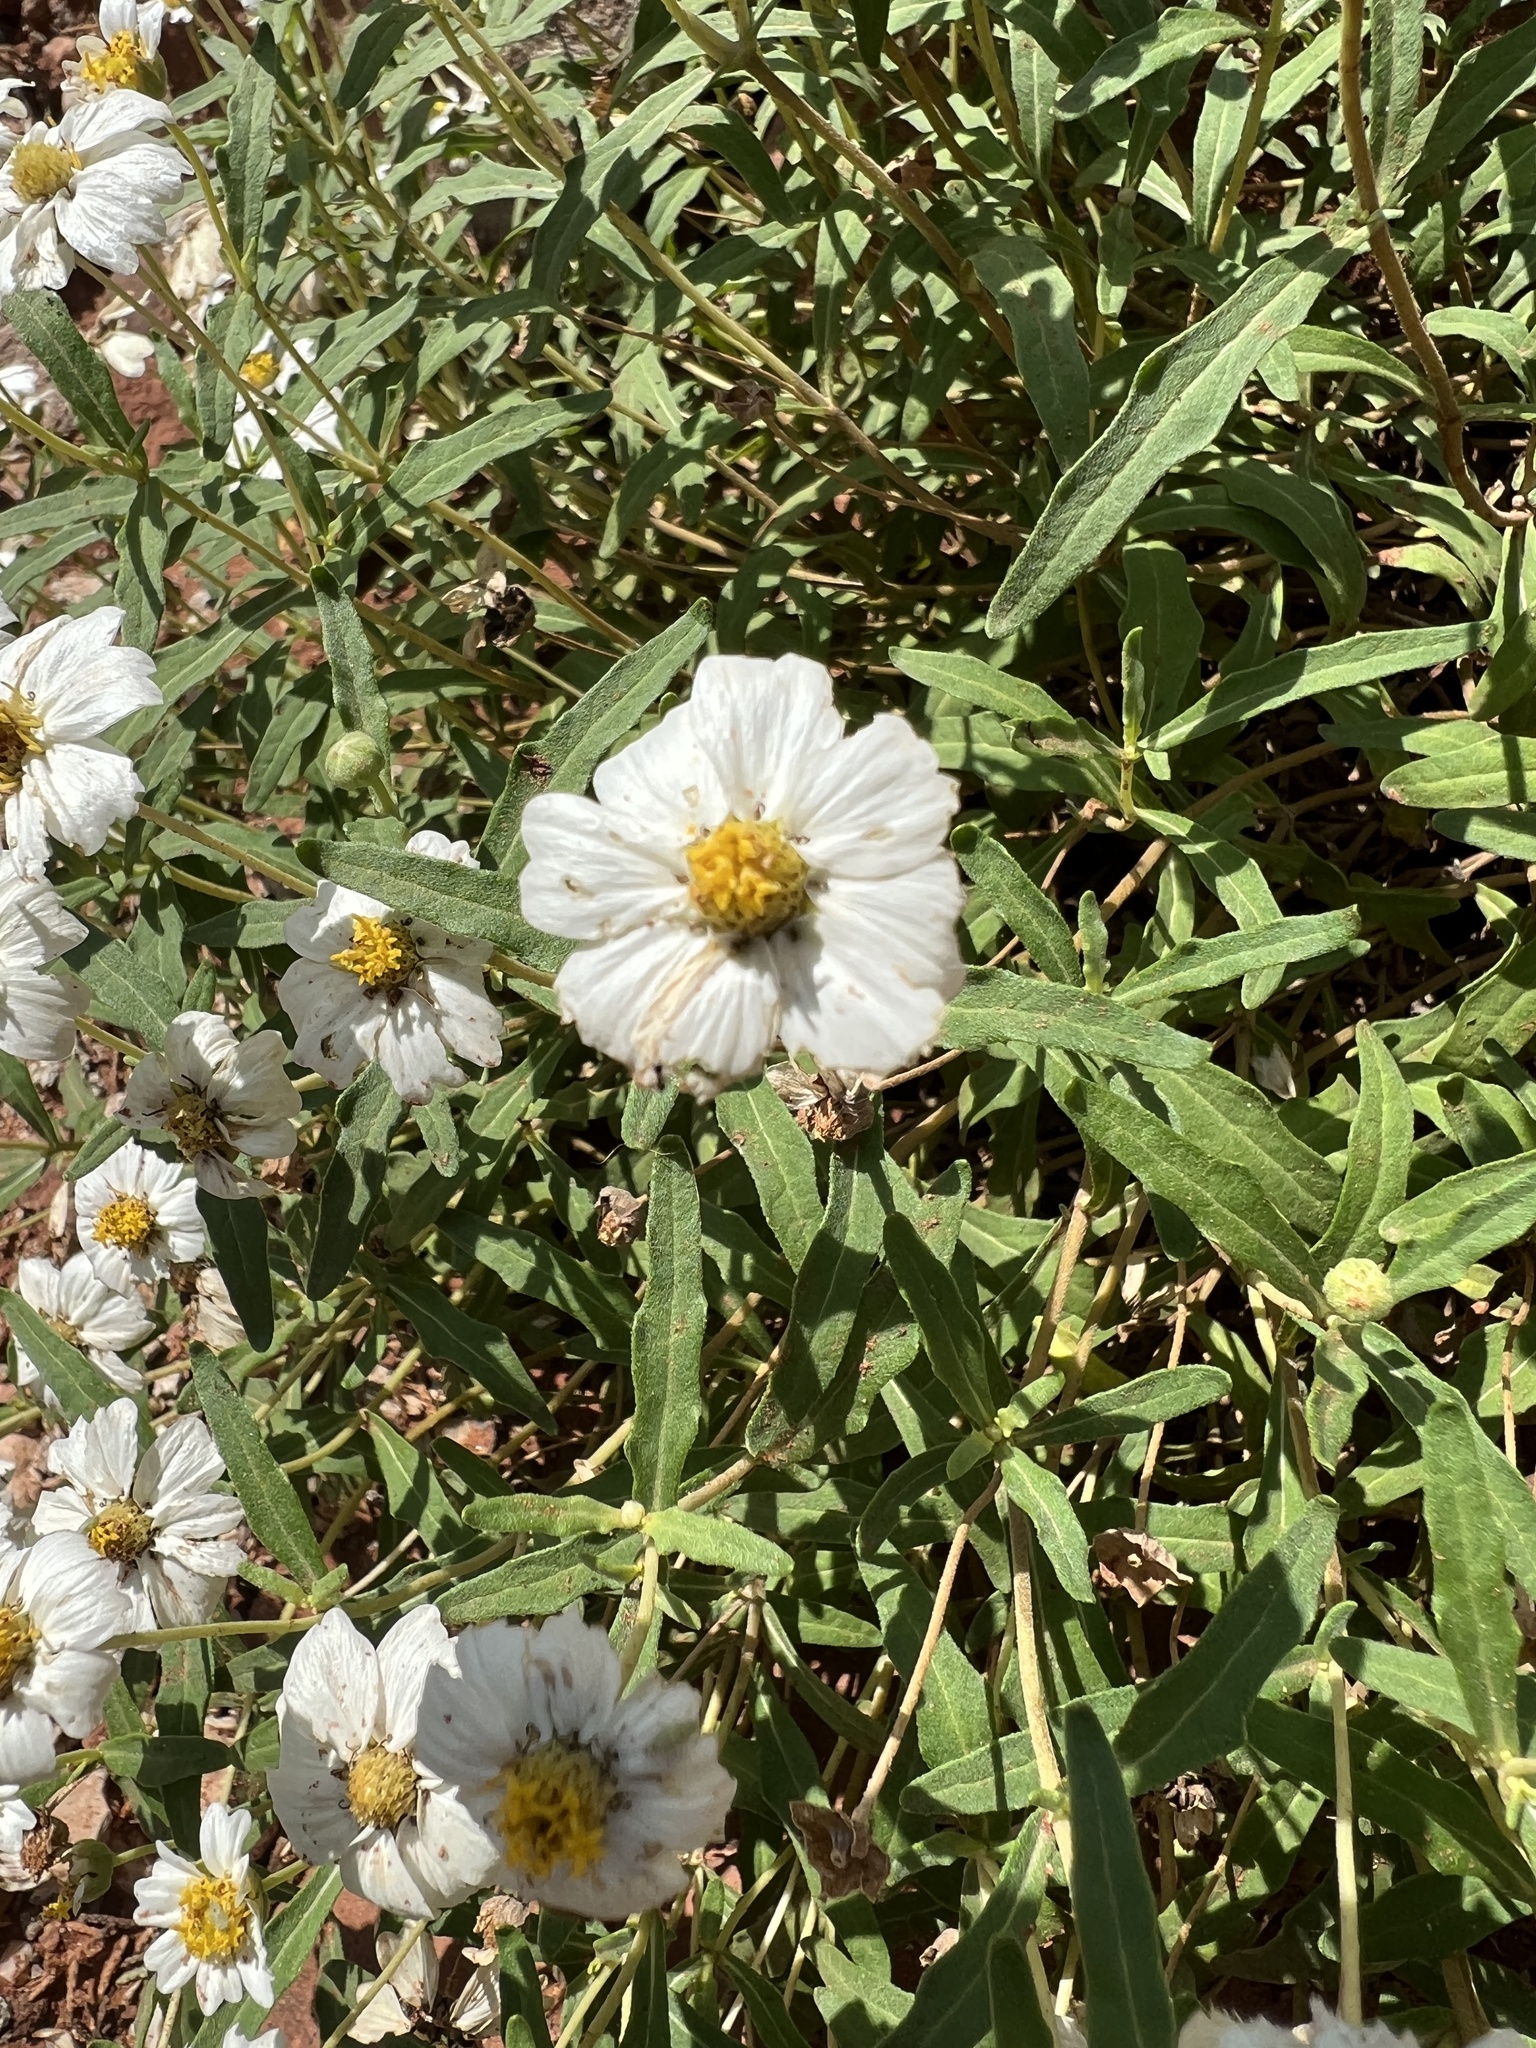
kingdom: Plantae
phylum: Tracheophyta
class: Magnoliopsida
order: Asterales
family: Asteraceae
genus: Melampodium
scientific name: Melampodium leucanthum
